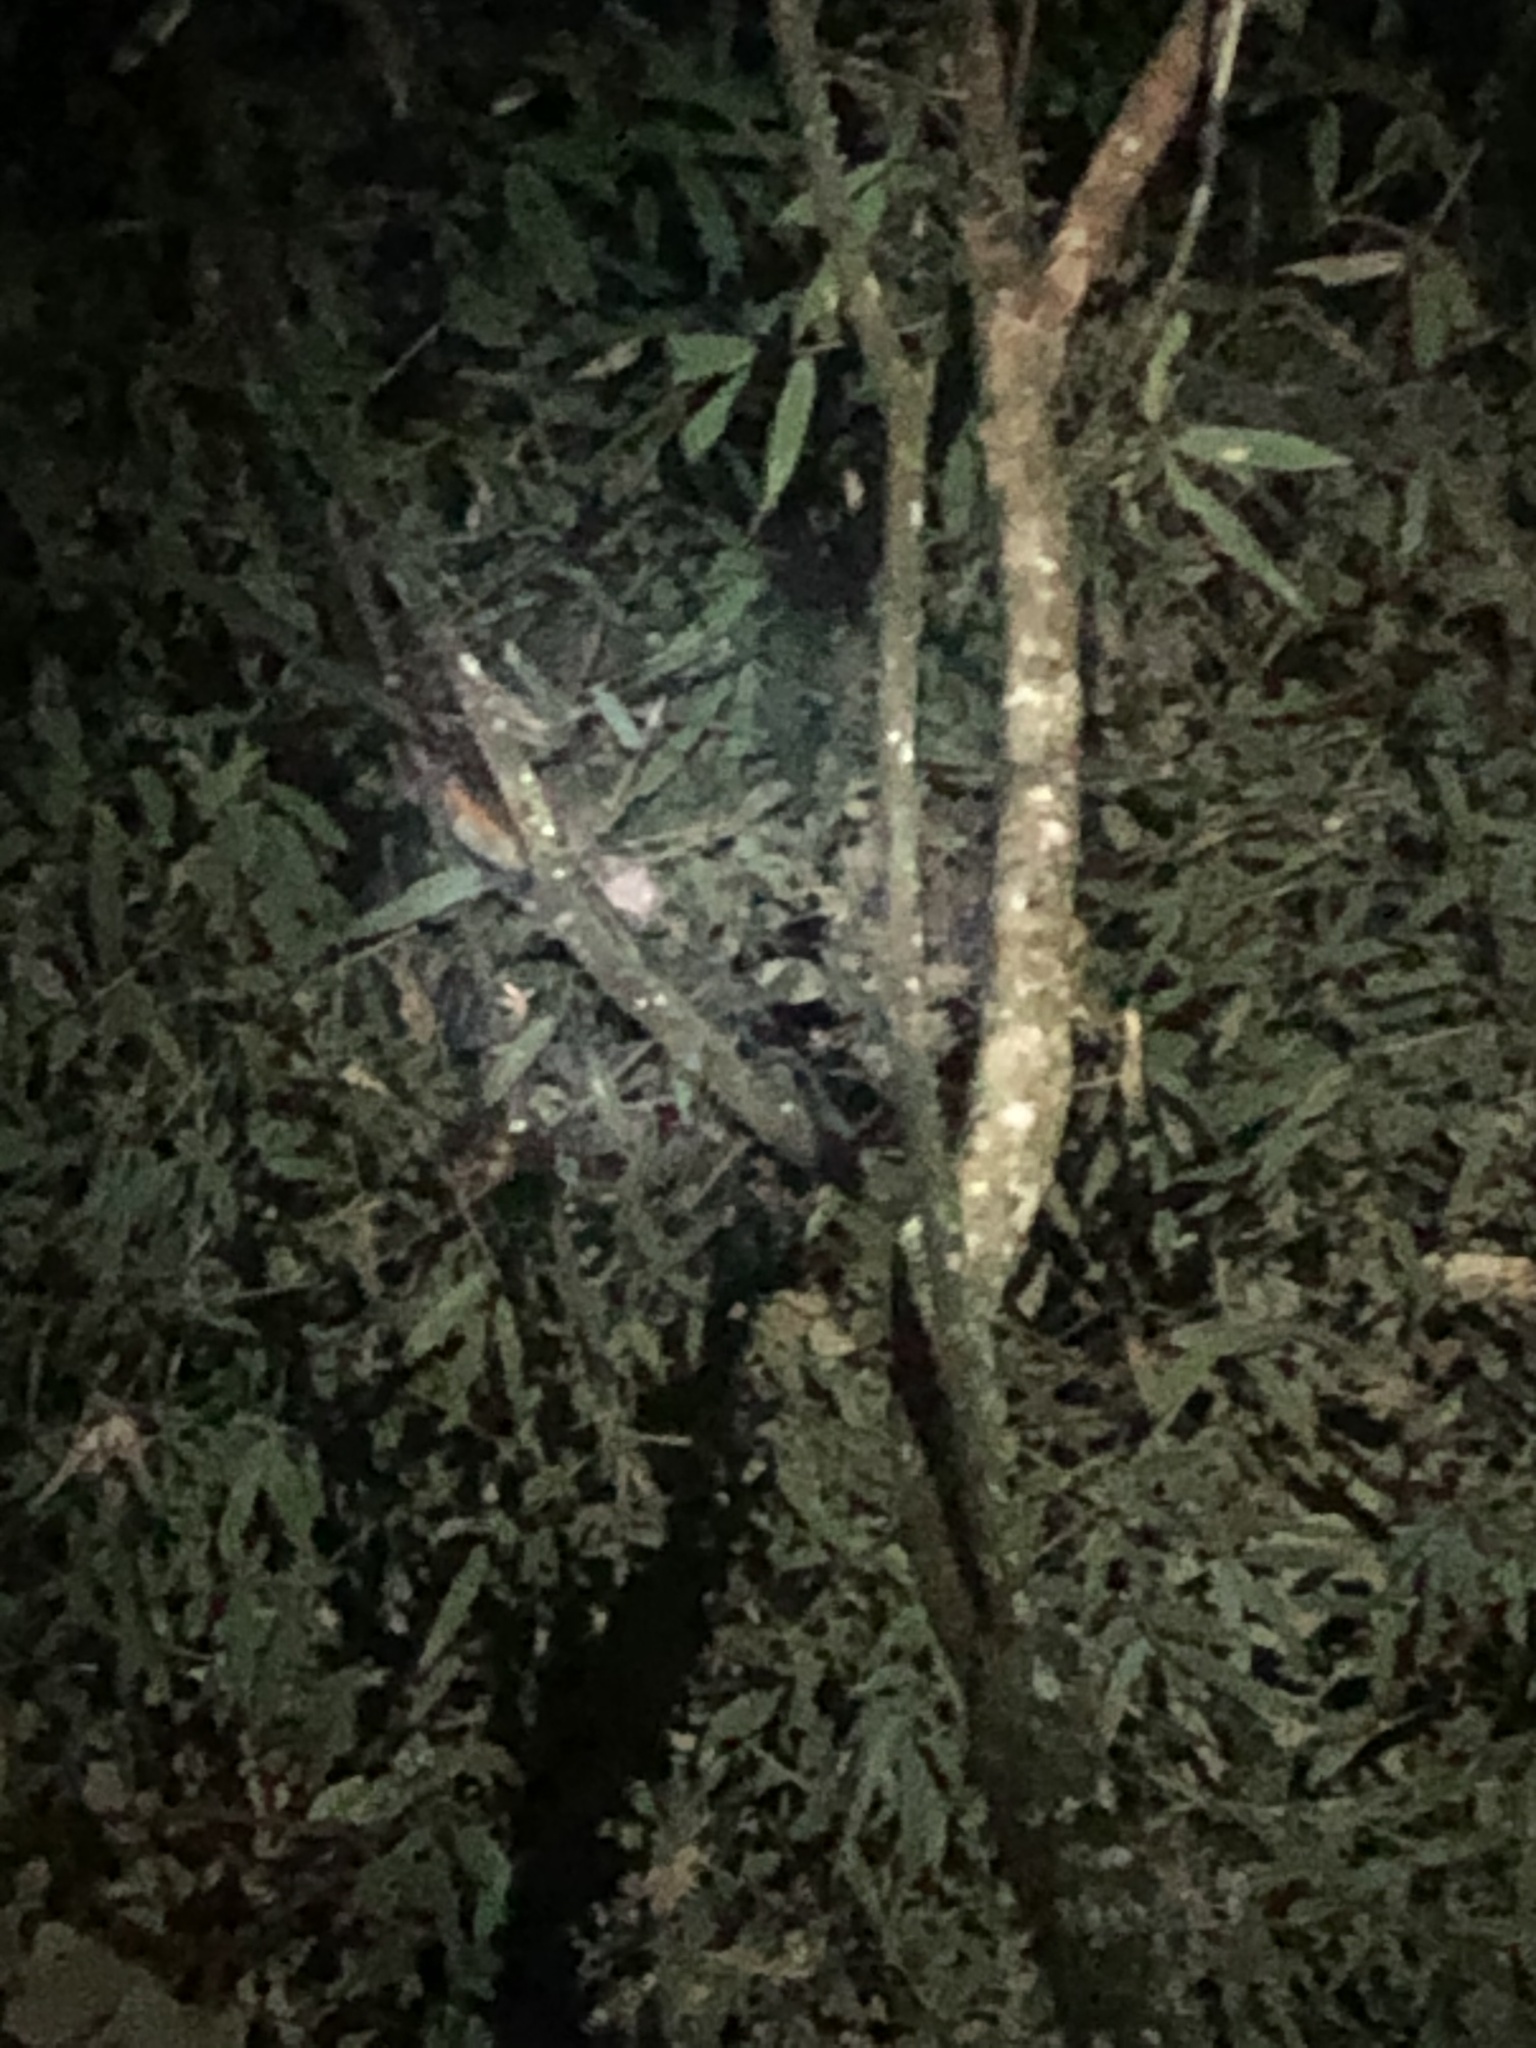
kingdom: Animalia
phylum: Chordata
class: Mammalia
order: Carnivora
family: Procyonidae
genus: Potos
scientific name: Potos flavus
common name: Kinkajou
